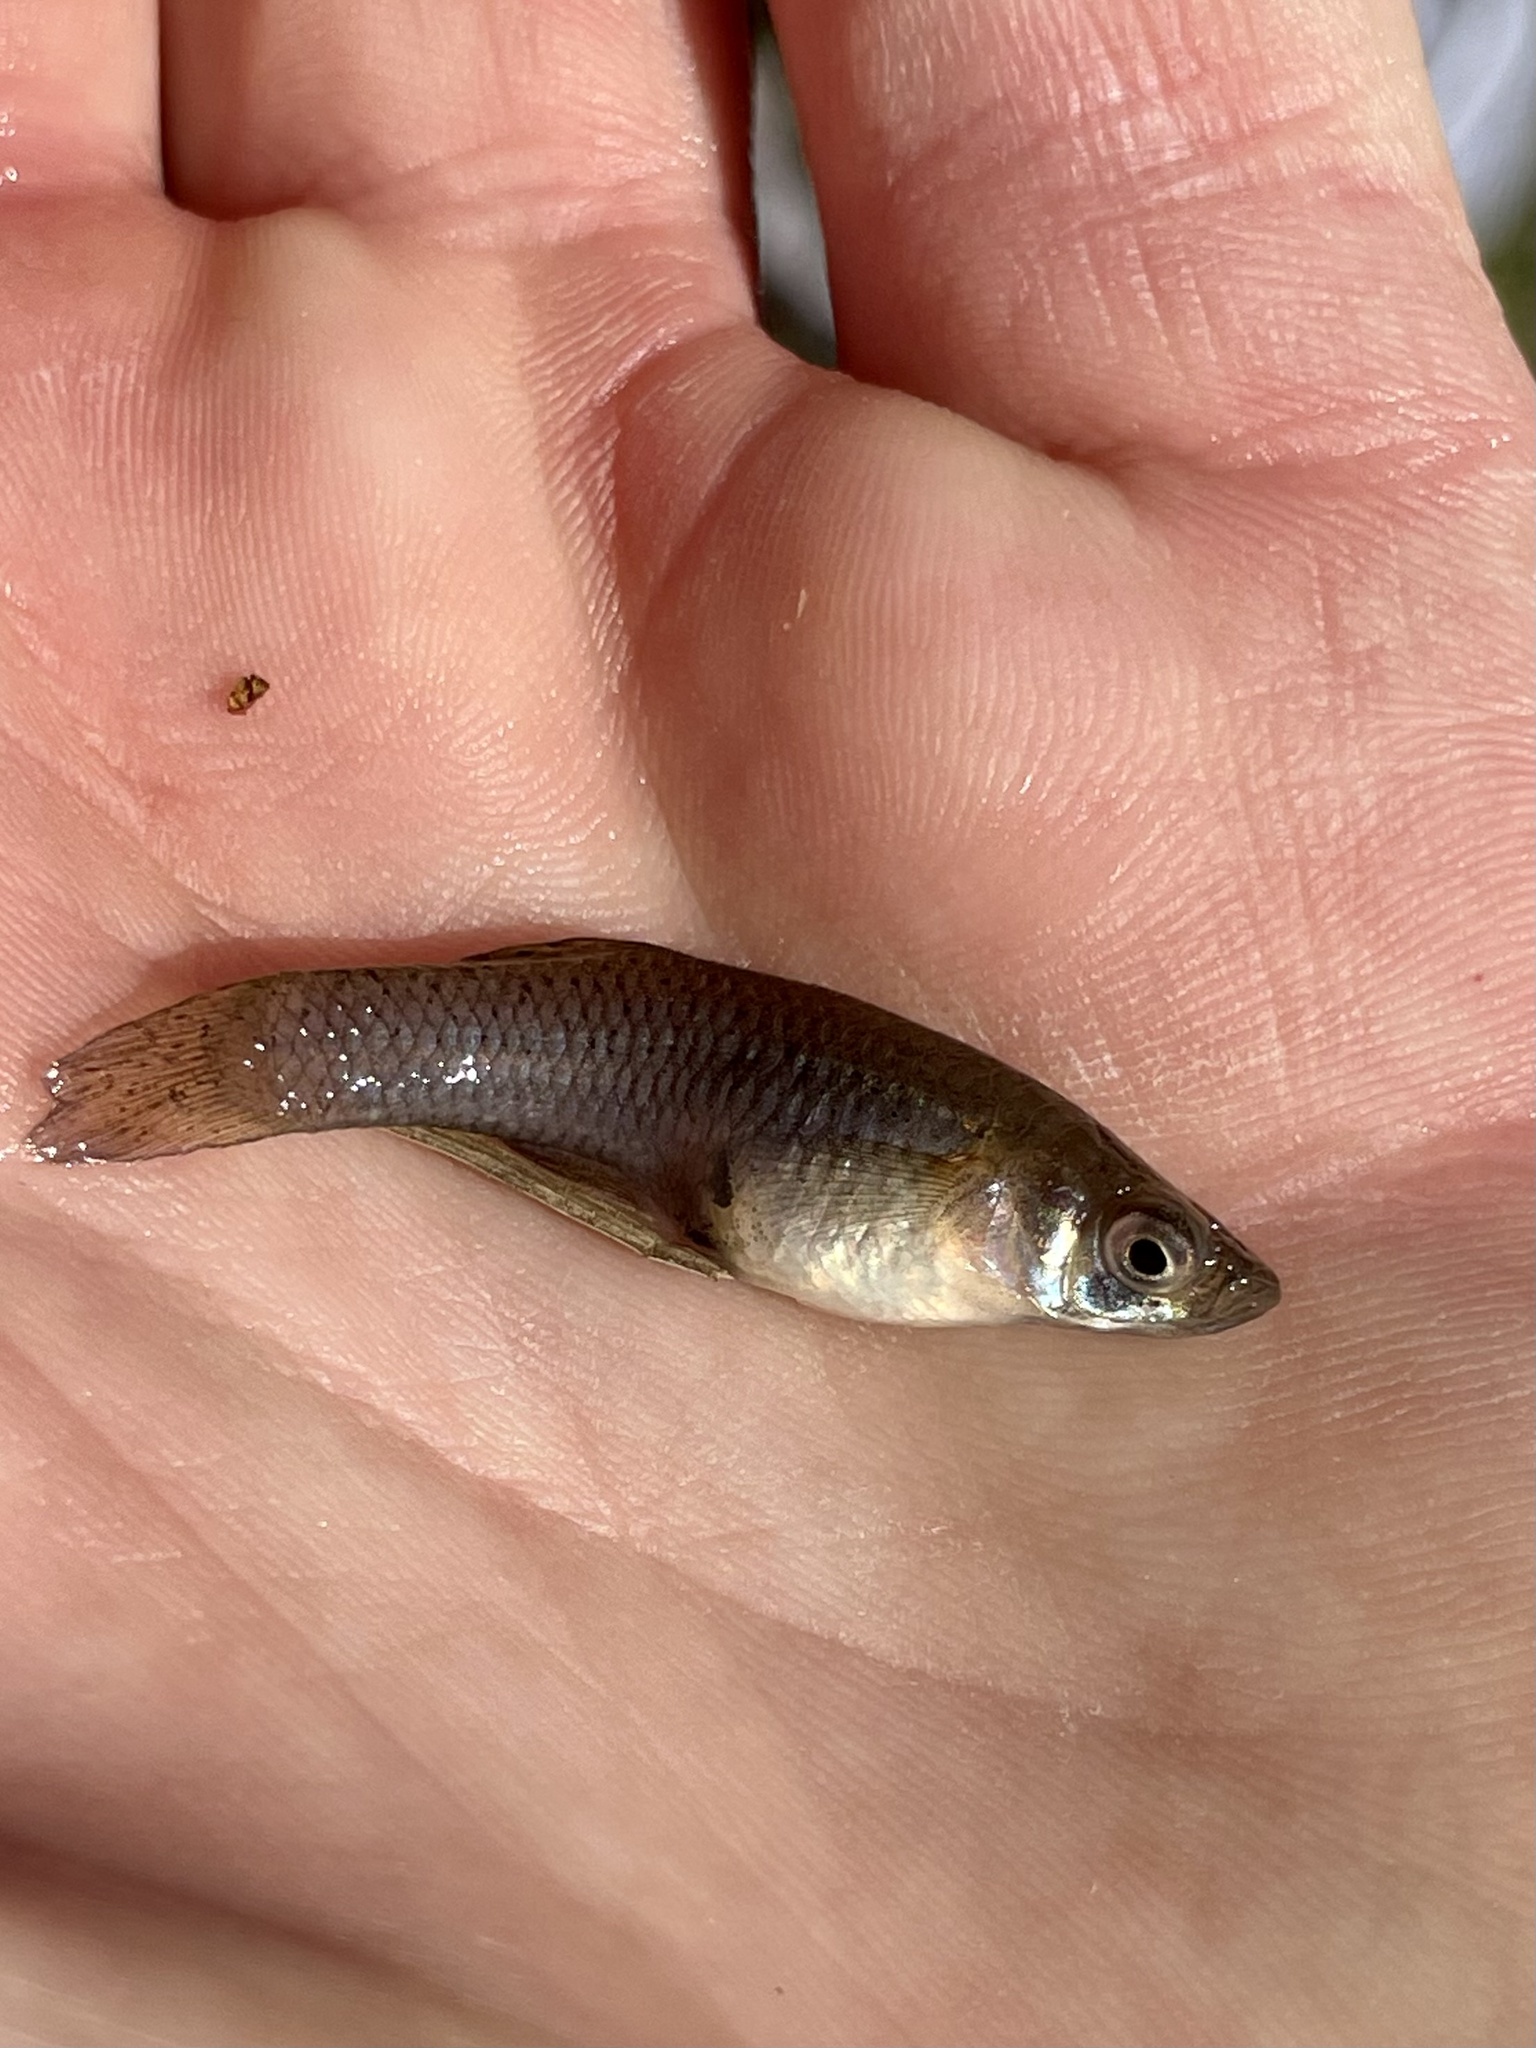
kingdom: Animalia
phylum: Chordata
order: Cyprinodontiformes
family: Poeciliidae
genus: Gambusia
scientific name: Gambusia affinis
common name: Mosquitofish
